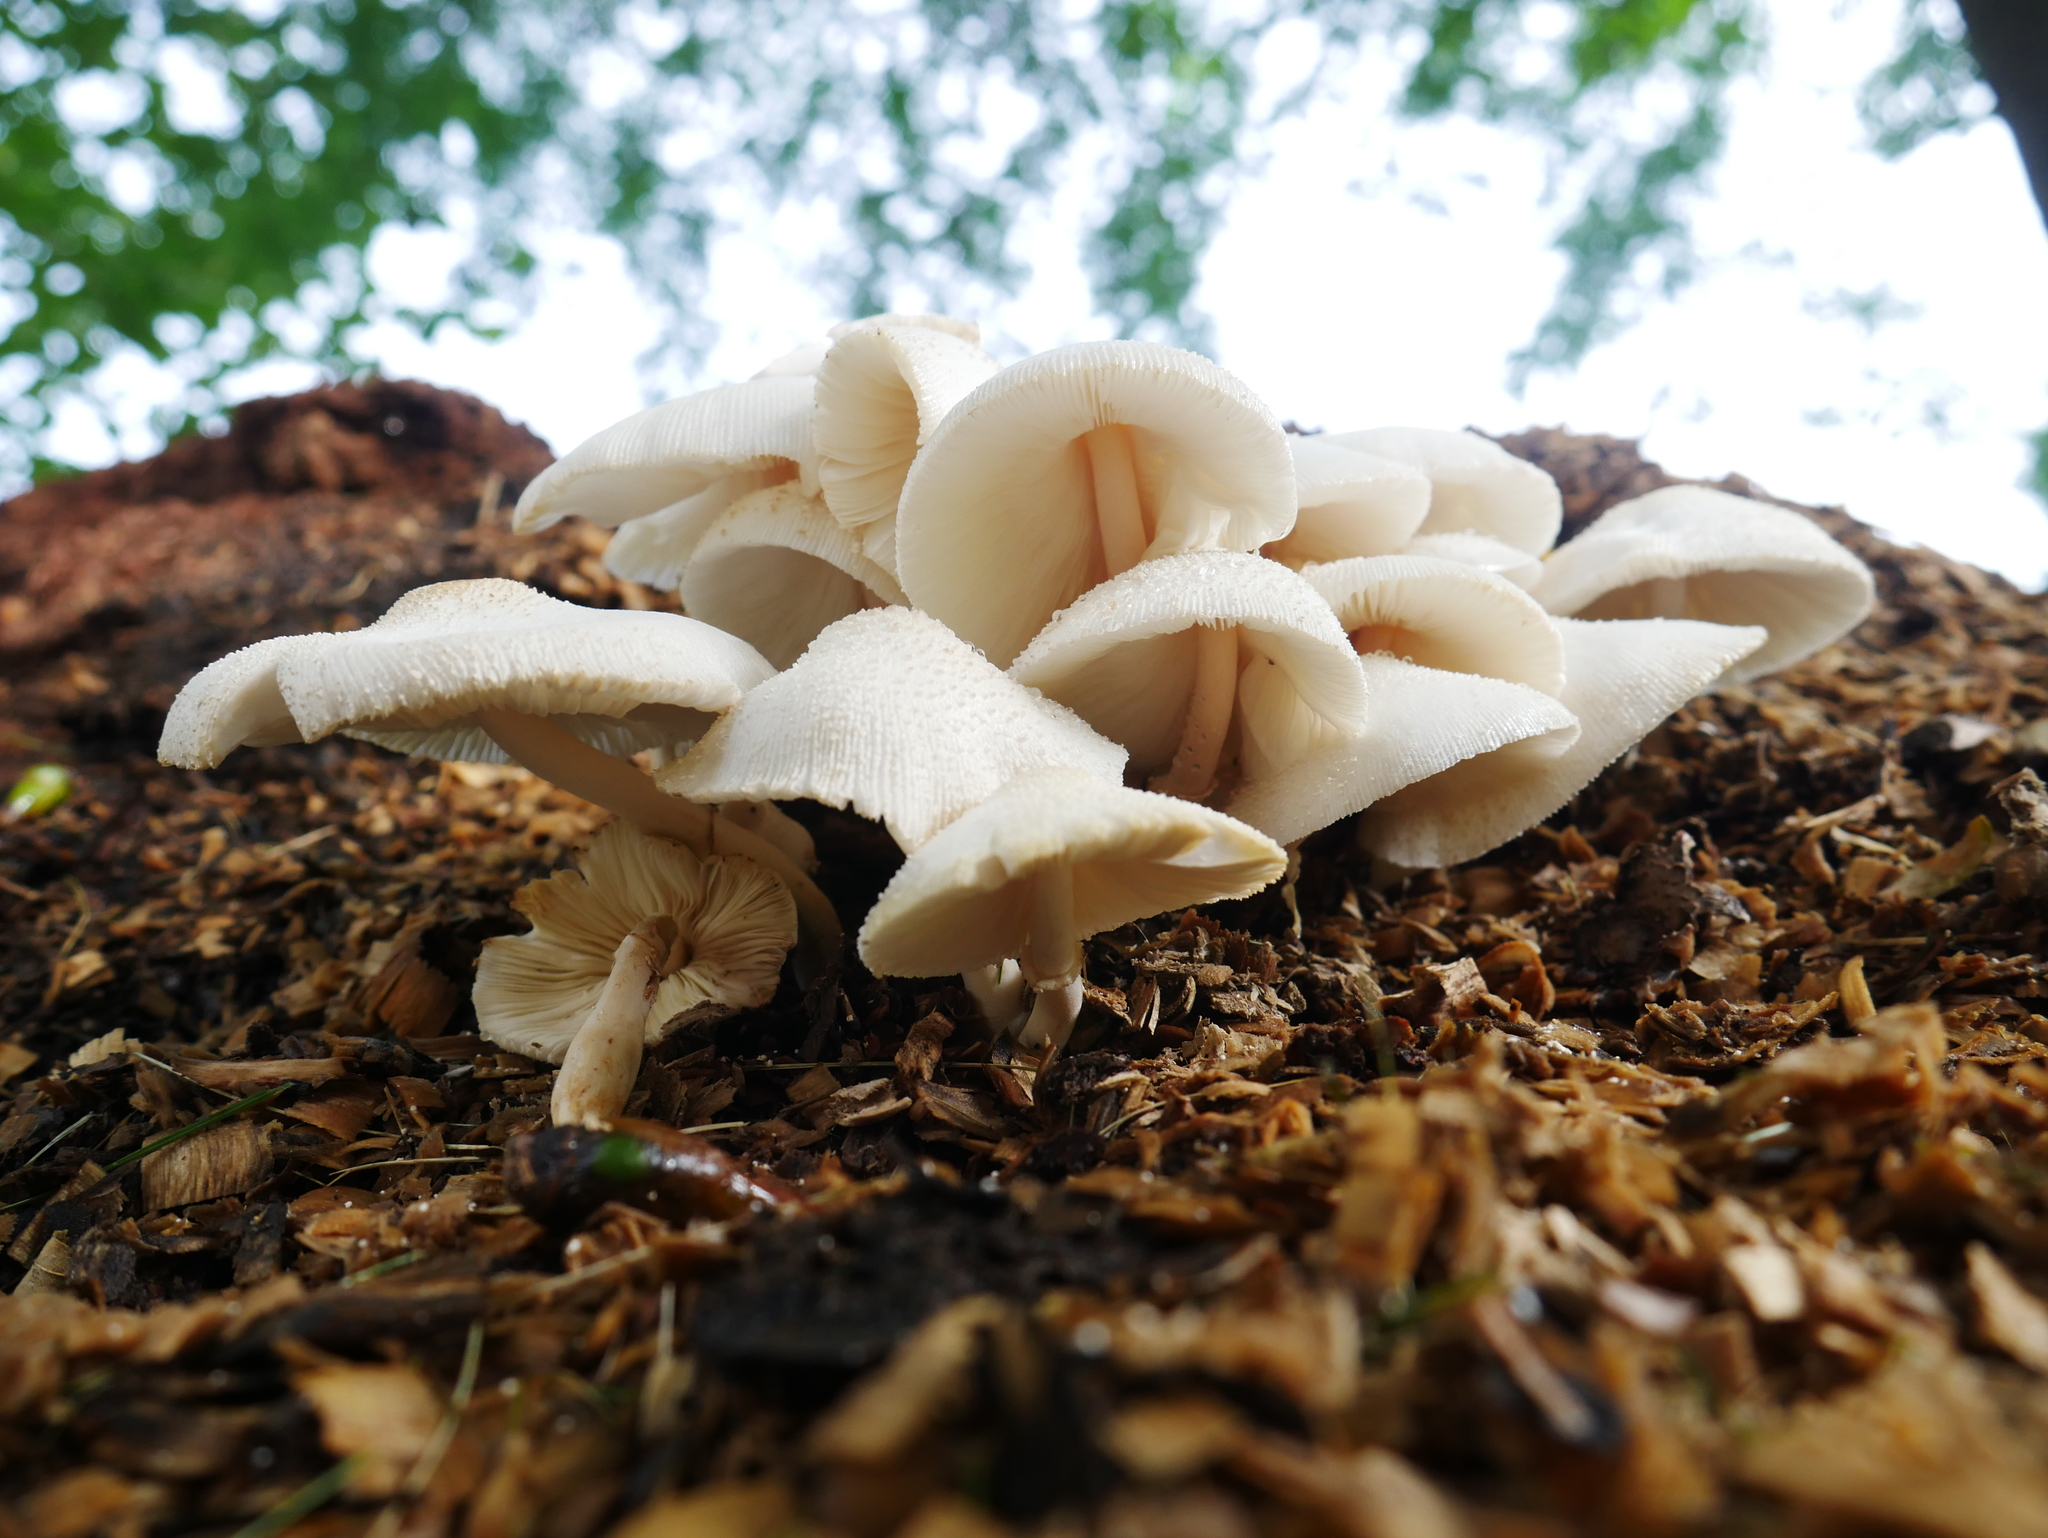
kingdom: Fungi
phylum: Basidiomycota
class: Agaricomycetes
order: Agaricales
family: Agaricaceae
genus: Leucocoprinus
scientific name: Leucocoprinus cepistipes
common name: Onion-stalk parasol
